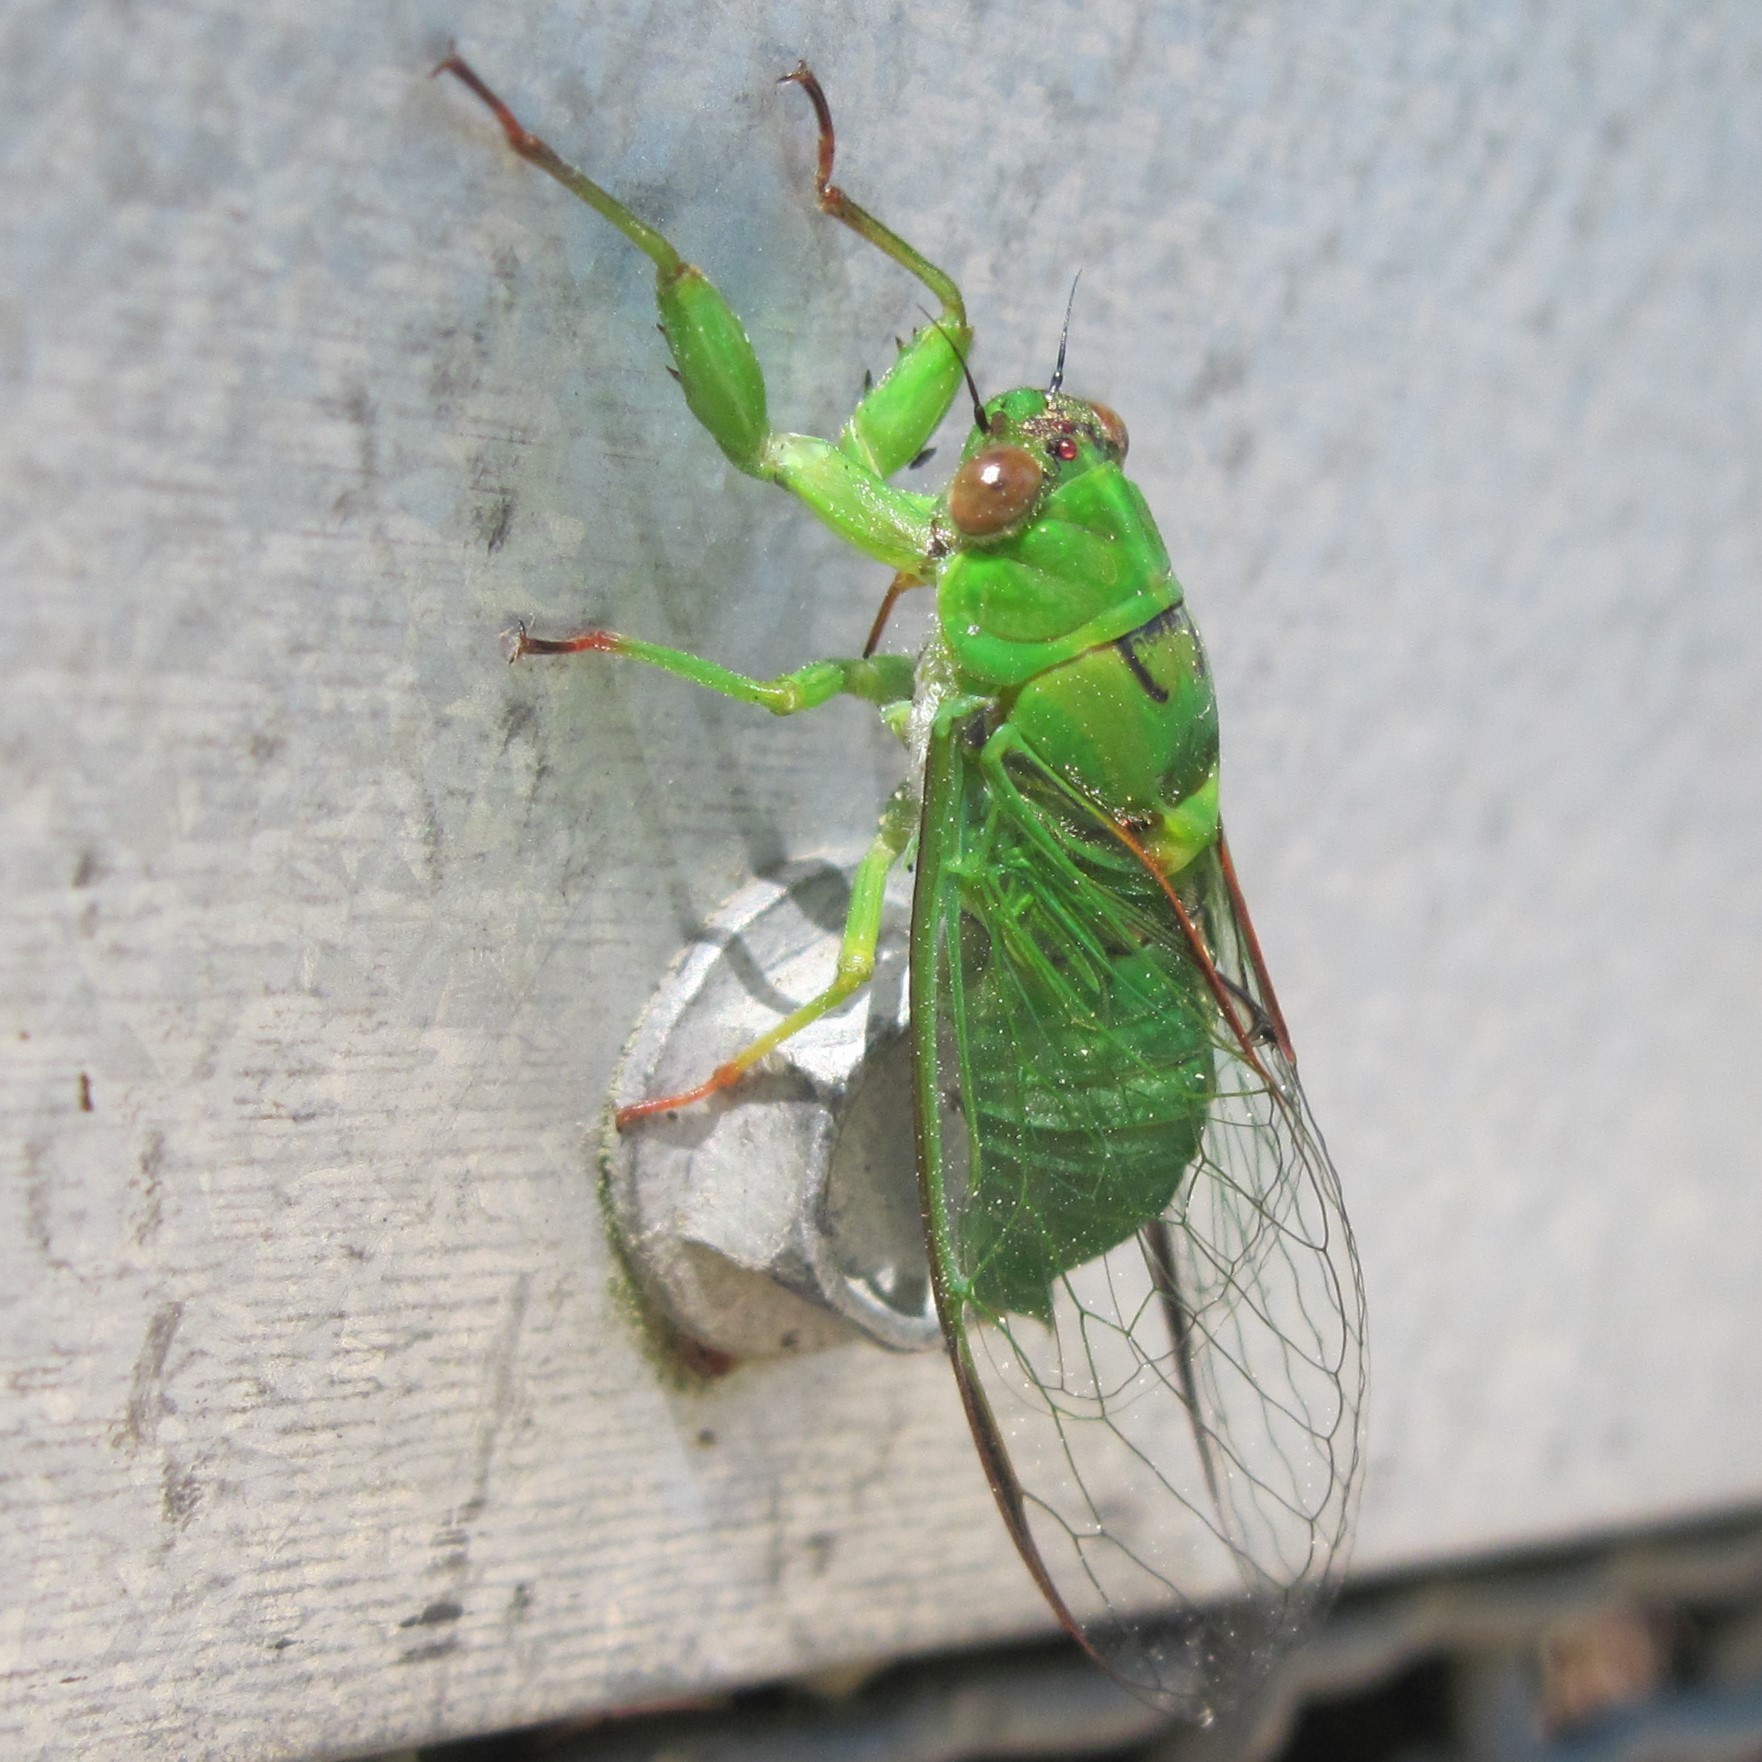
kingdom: Animalia
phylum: Arthropoda
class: Insecta
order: Hemiptera
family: Cicadidae
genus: Kikihia
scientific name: Kikihia ochrina
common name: April green cicada
